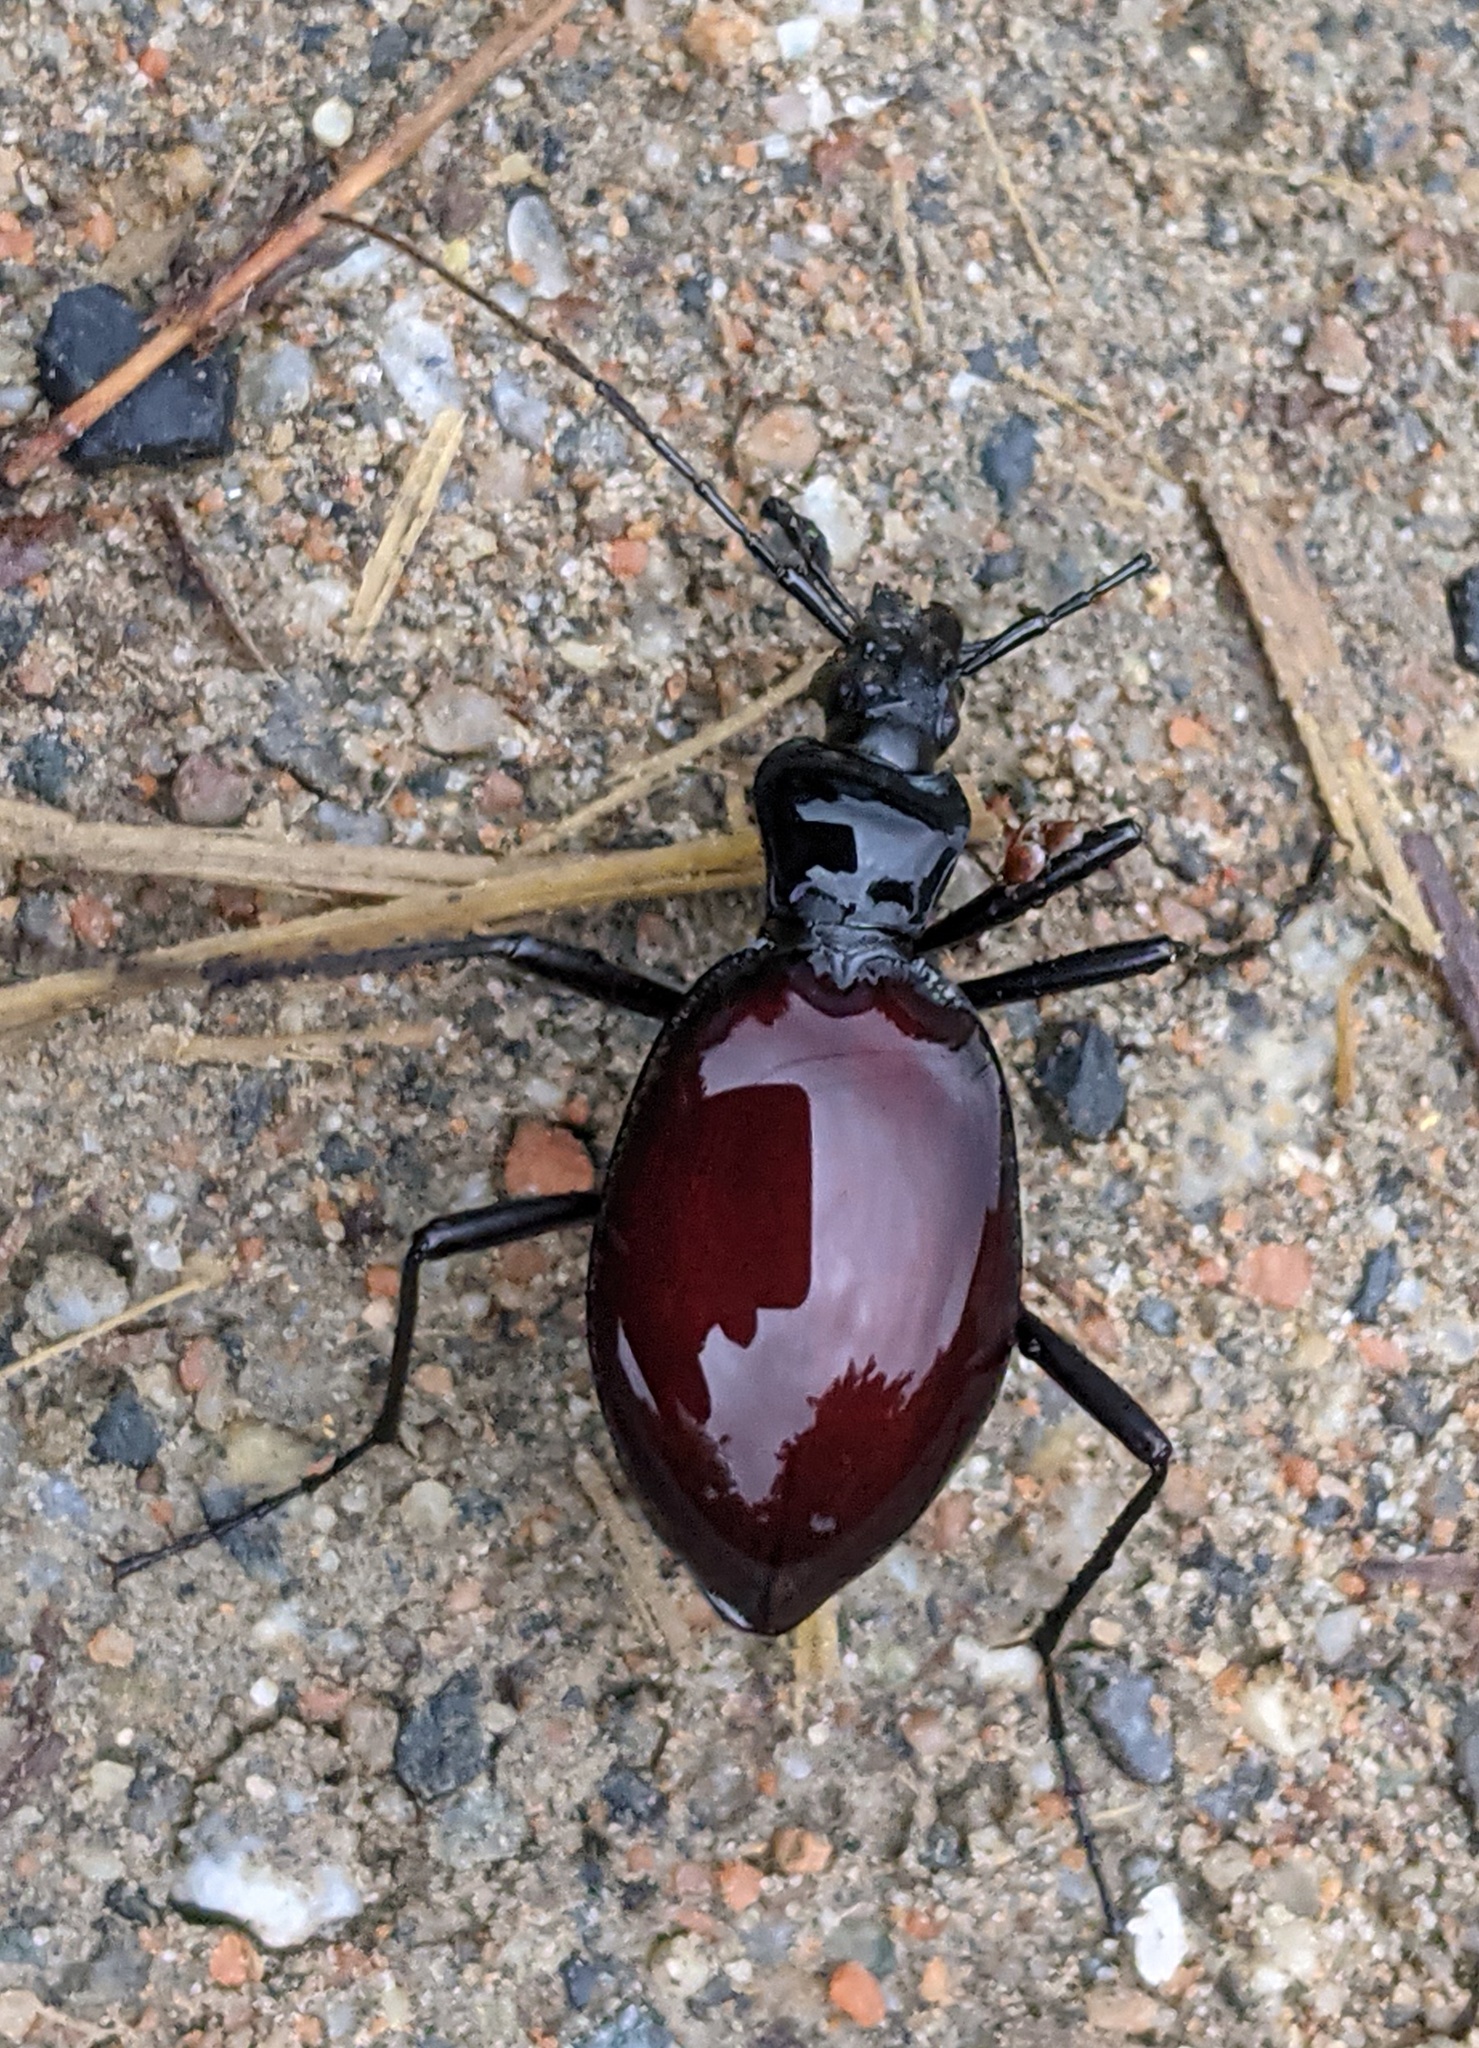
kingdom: Animalia
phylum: Arthropoda
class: Insecta
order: Coleoptera
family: Carabidae
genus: Scaphinotus
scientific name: Scaphinotus angusticollis
